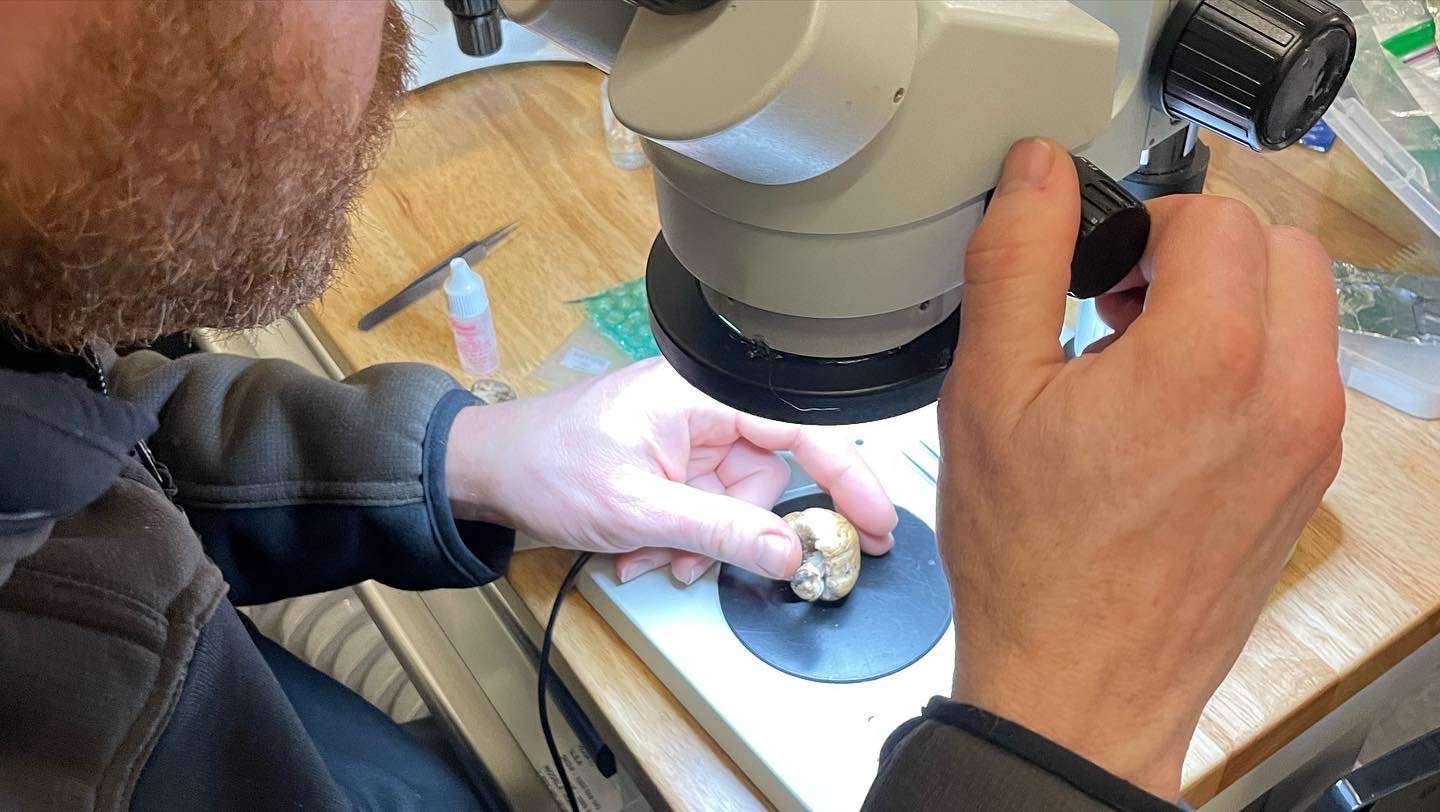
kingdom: Fungi
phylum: Basidiomycota
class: Agaricomycetes
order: Agaricales
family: Psathyrellaceae
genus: Coprinellus
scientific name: Coprinellus bipellis
